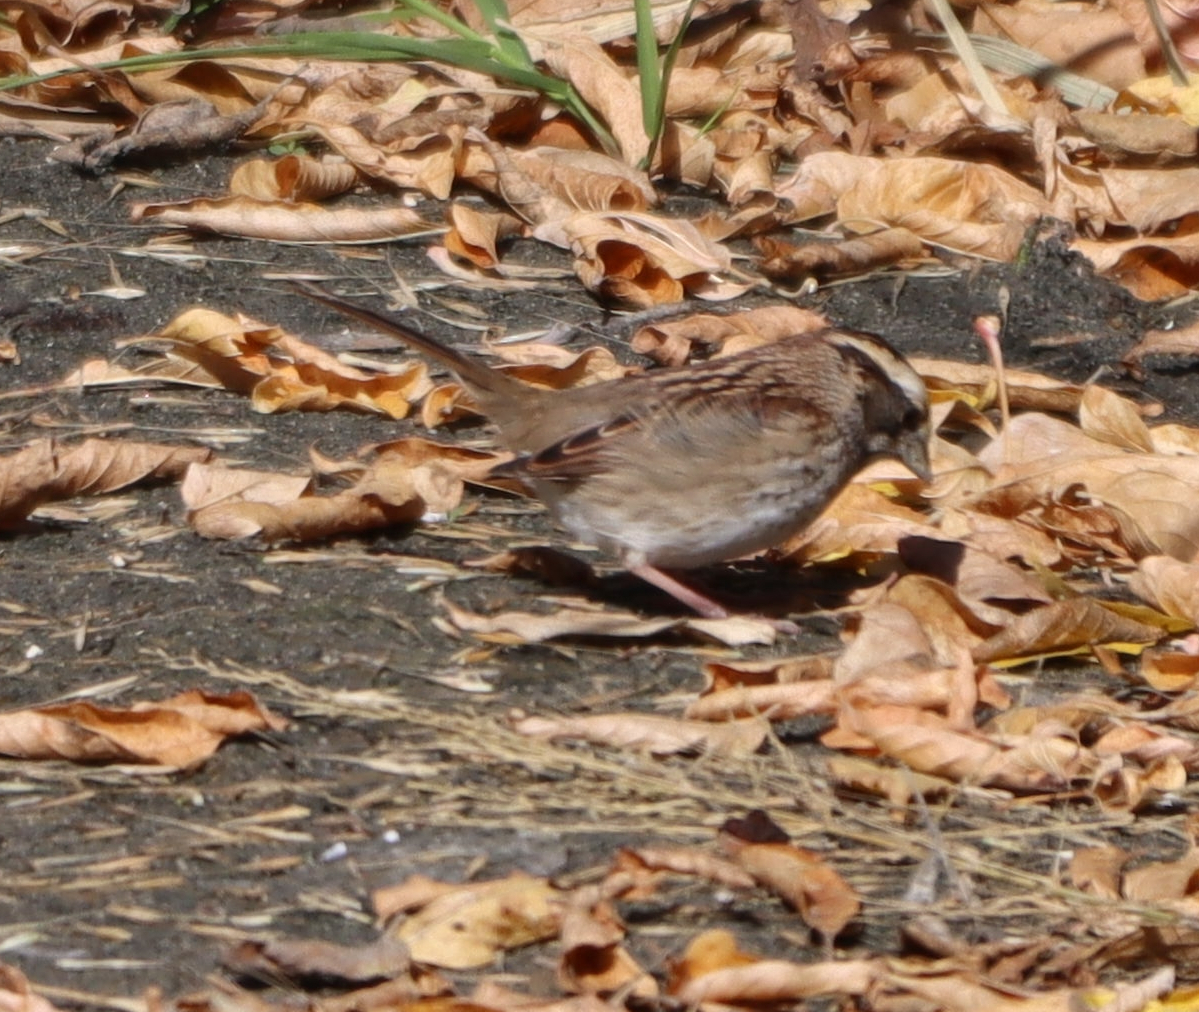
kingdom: Animalia
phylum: Chordata
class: Aves
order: Passeriformes
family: Passerellidae
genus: Zonotrichia
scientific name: Zonotrichia albicollis
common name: White-throated sparrow
